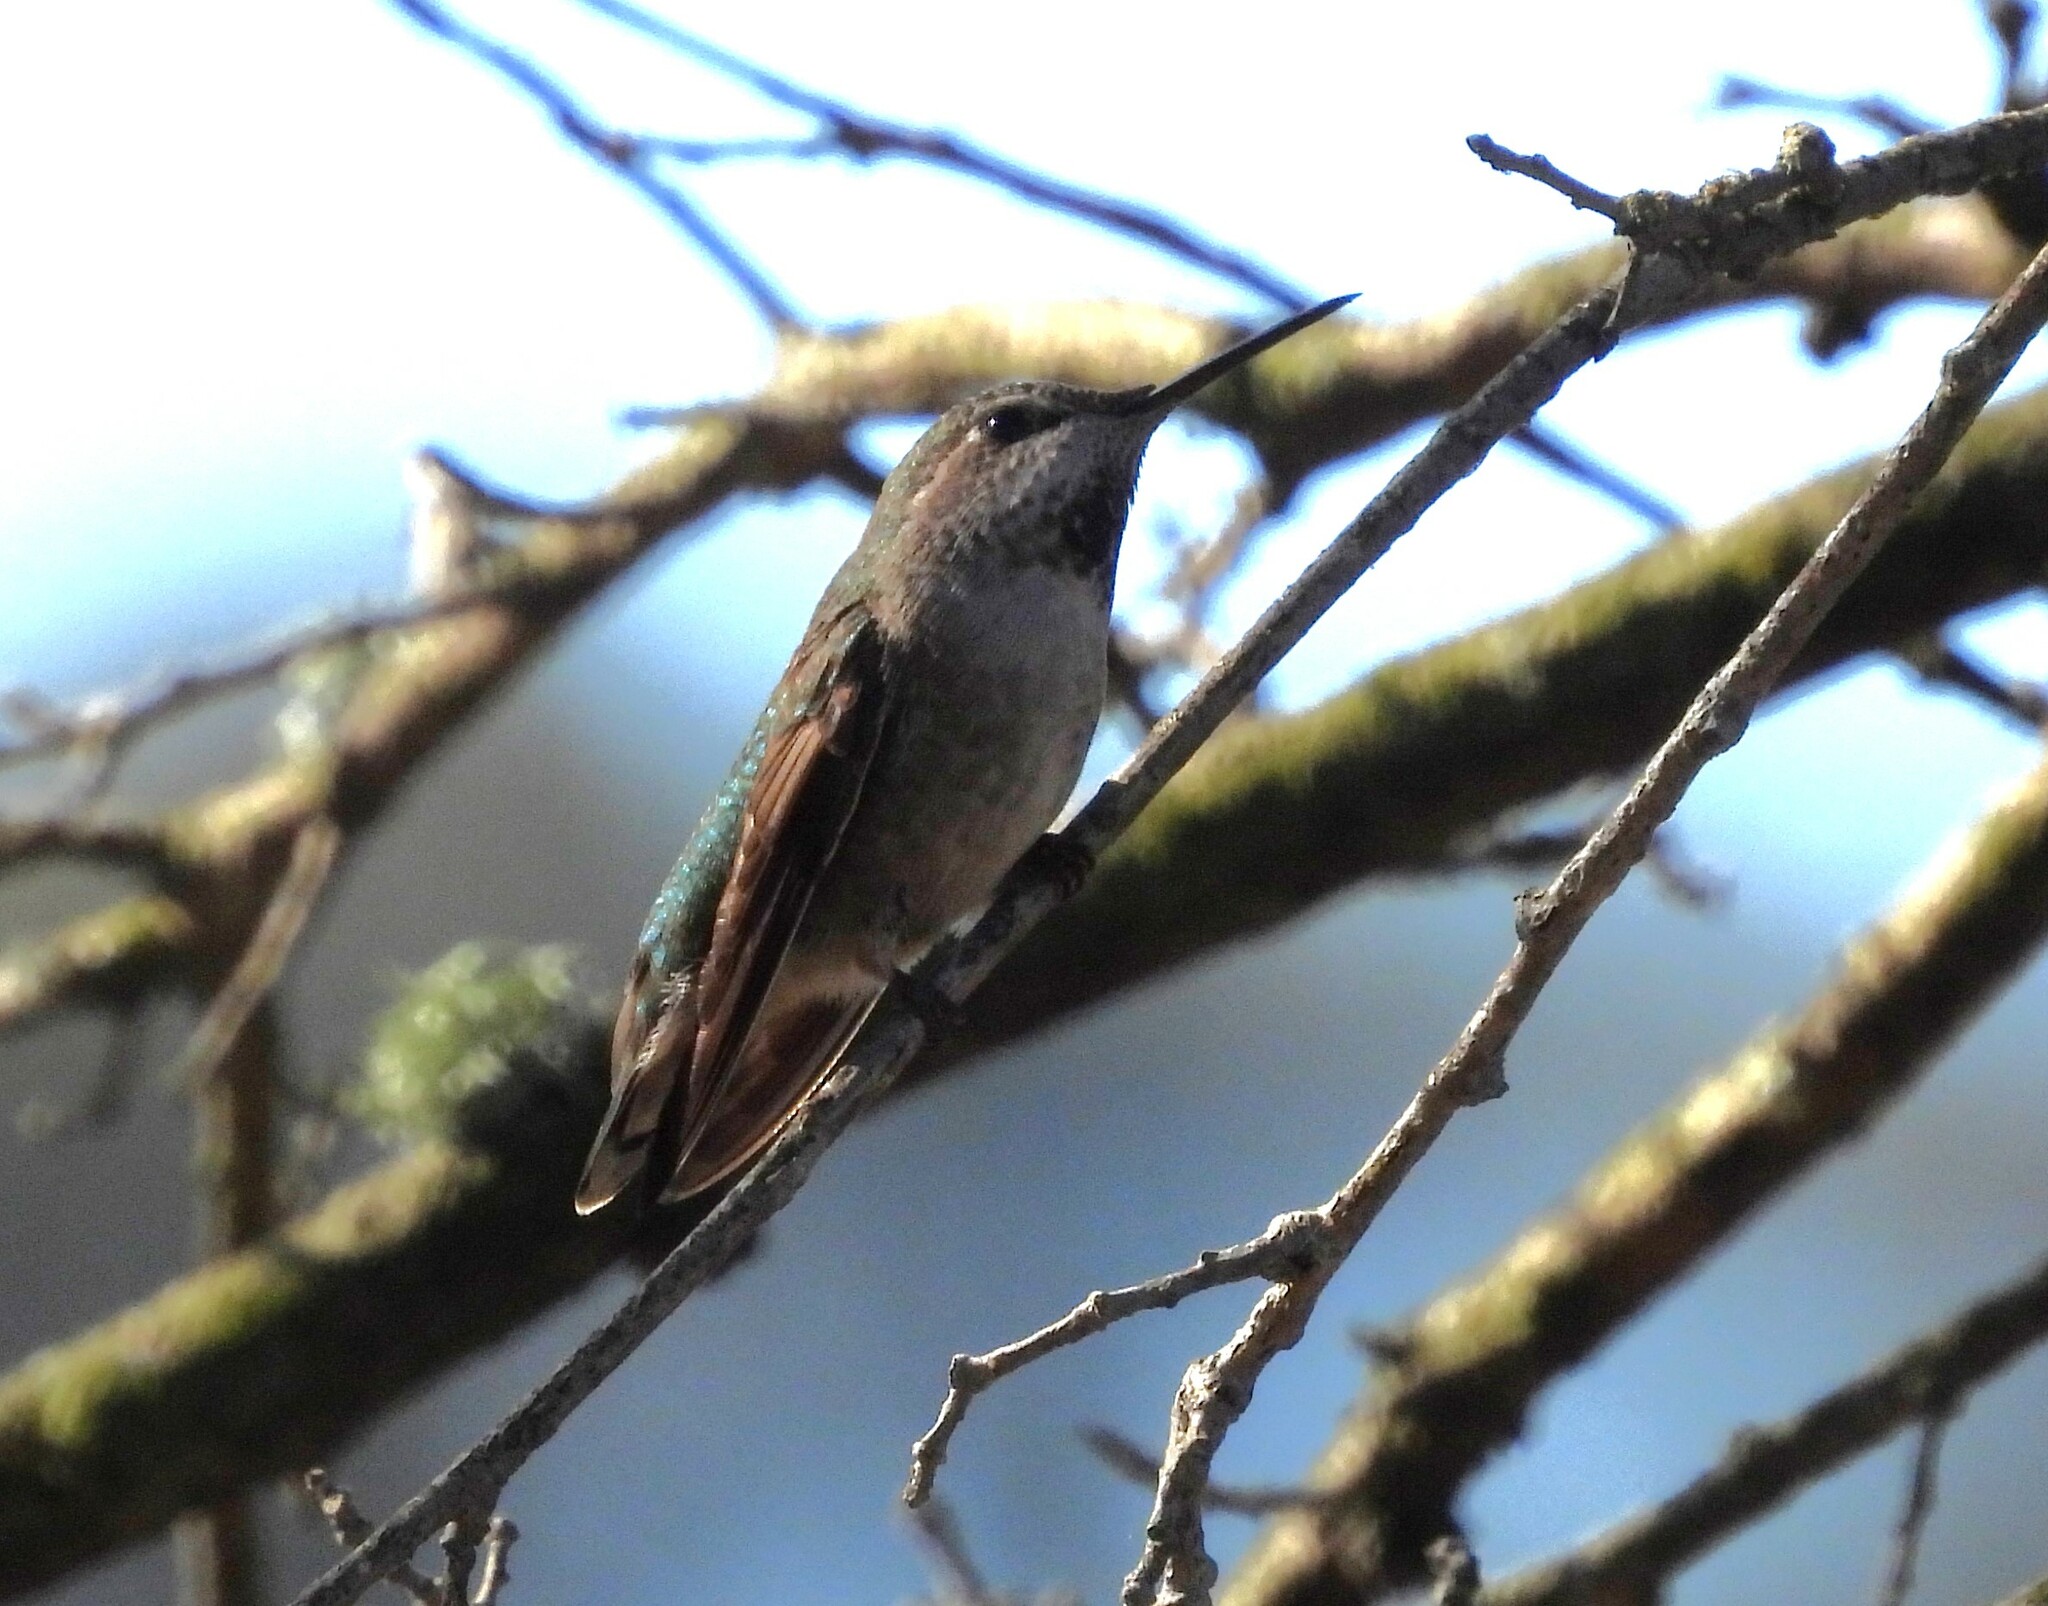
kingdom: Animalia
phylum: Chordata
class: Aves
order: Apodiformes
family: Trochilidae
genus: Calypte
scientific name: Calypte anna
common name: Anna's hummingbird
